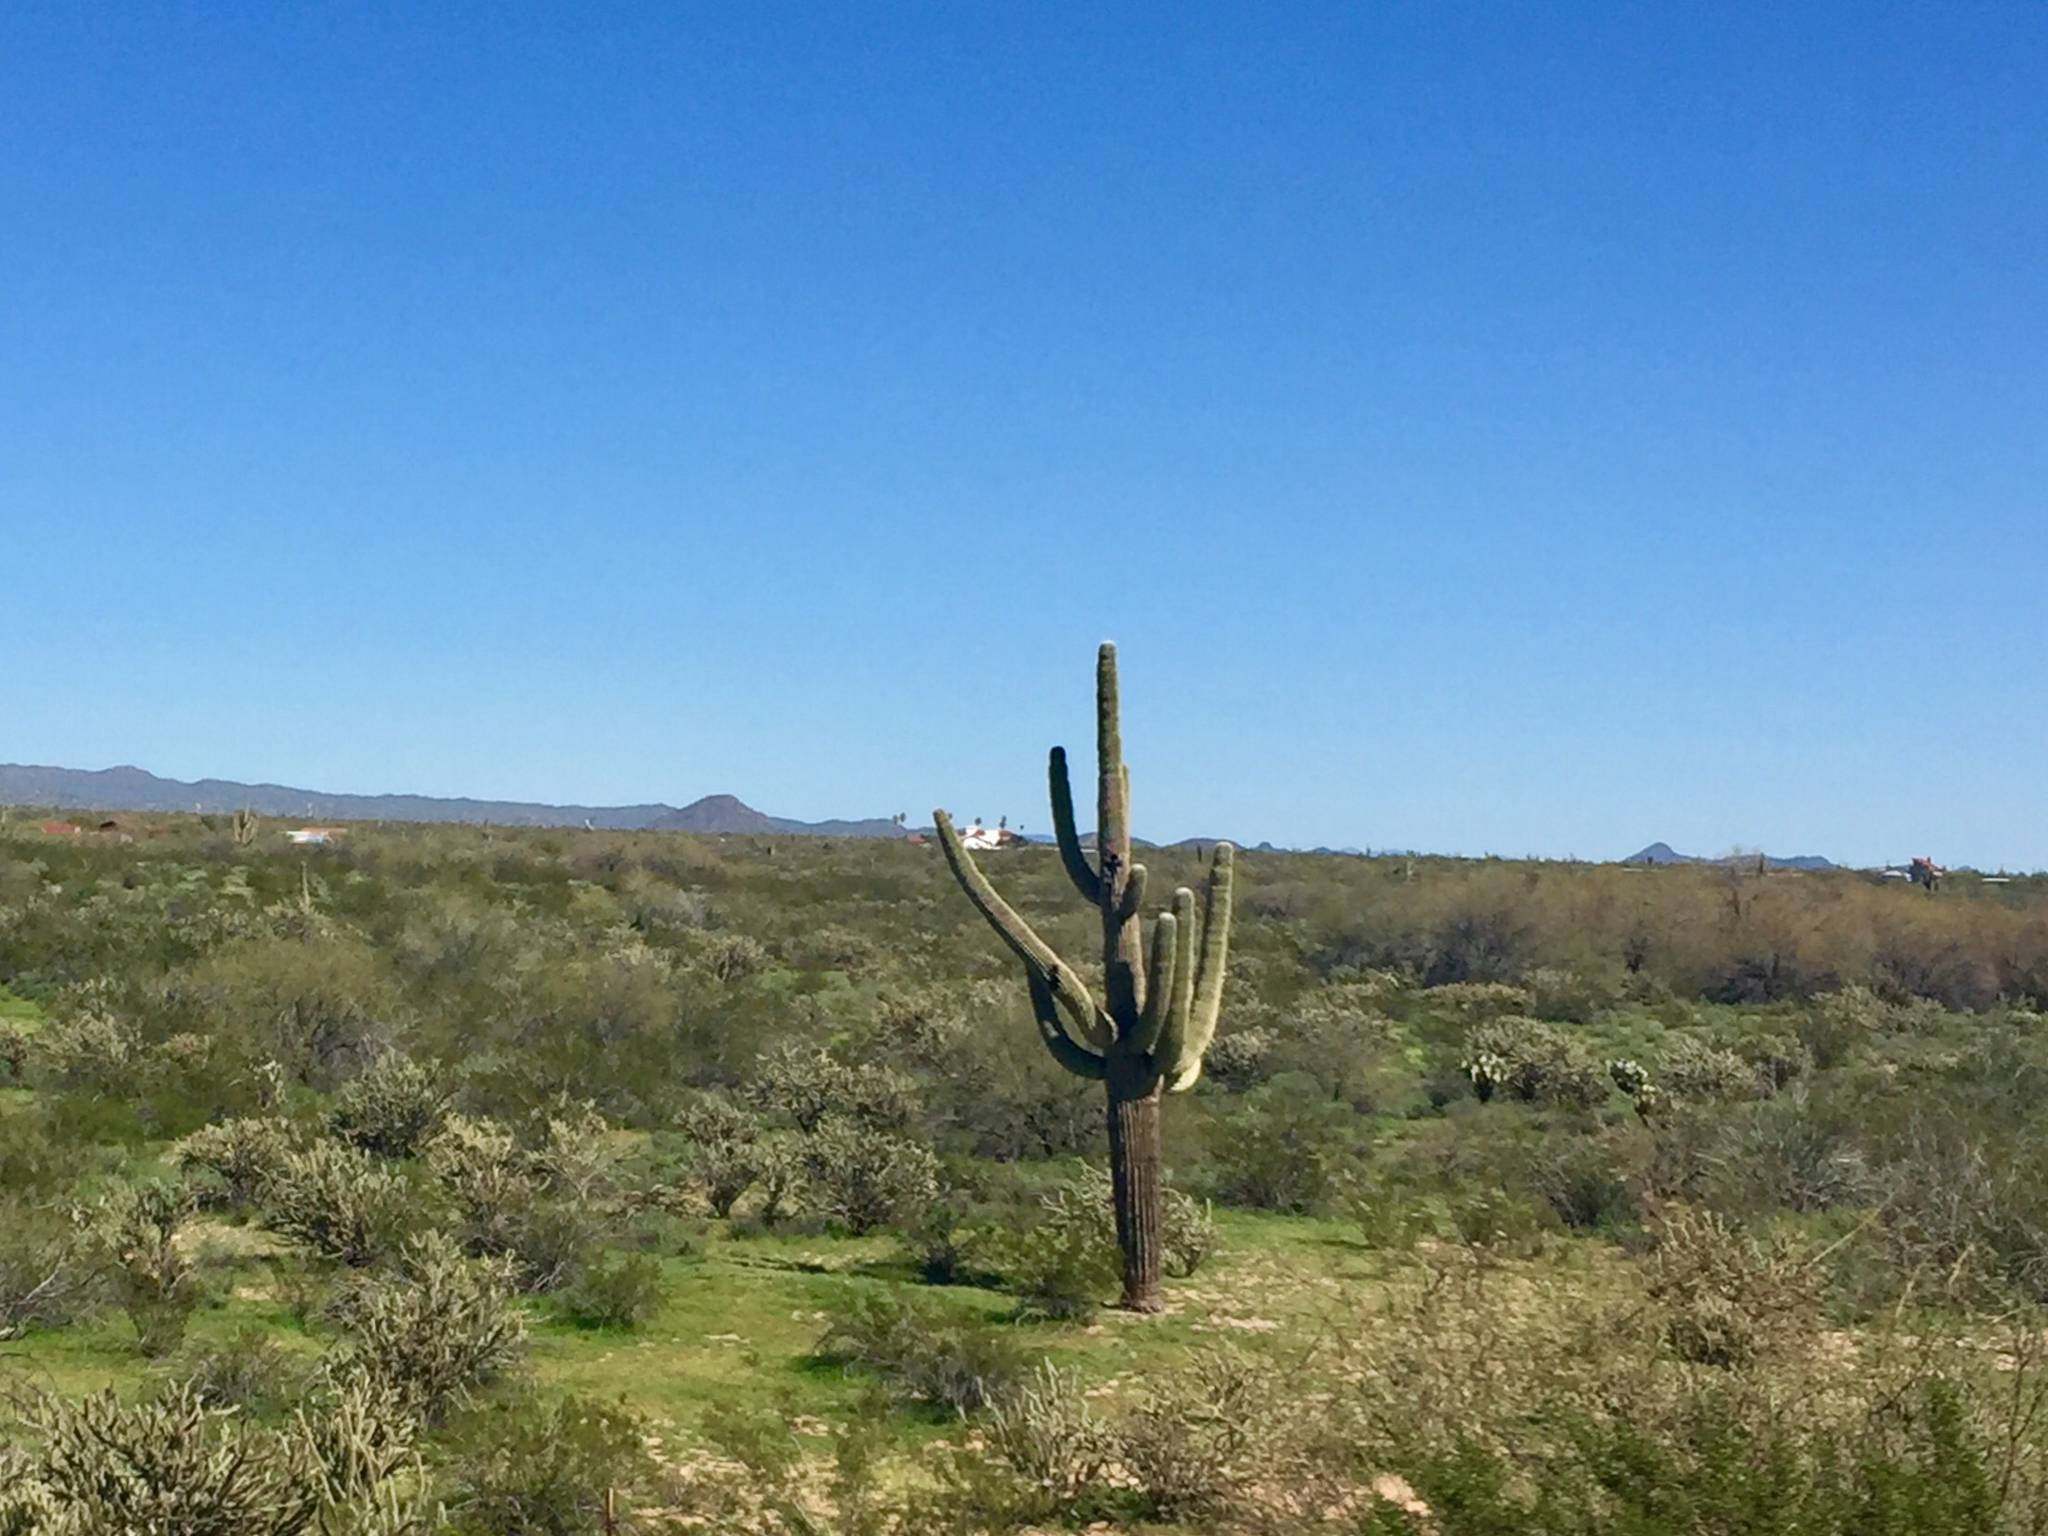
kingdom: Plantae
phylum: Tracheophyta
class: Magnoliopsida
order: Caryophyllales
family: Cactaceae
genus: Carnegiea
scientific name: Carnegiea gigantea
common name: Saguaro
